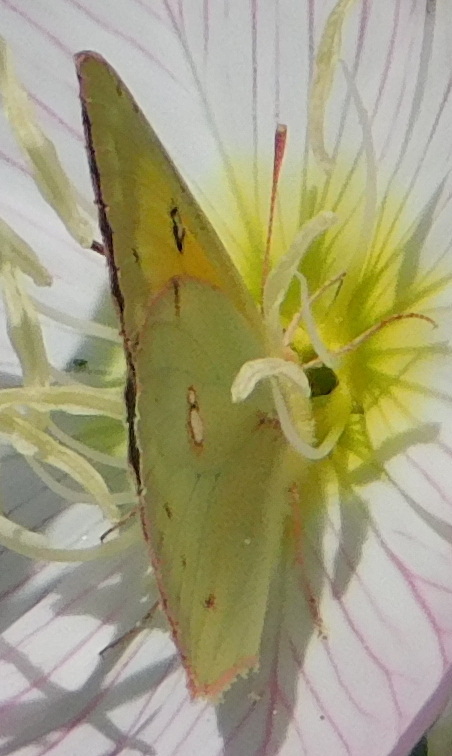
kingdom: Animalia
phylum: Arthropoda
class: Insecta
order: Lepidoptera
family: Pieridae
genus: Colias
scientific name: Colias eurytheme
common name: Alfalfa butterfly
